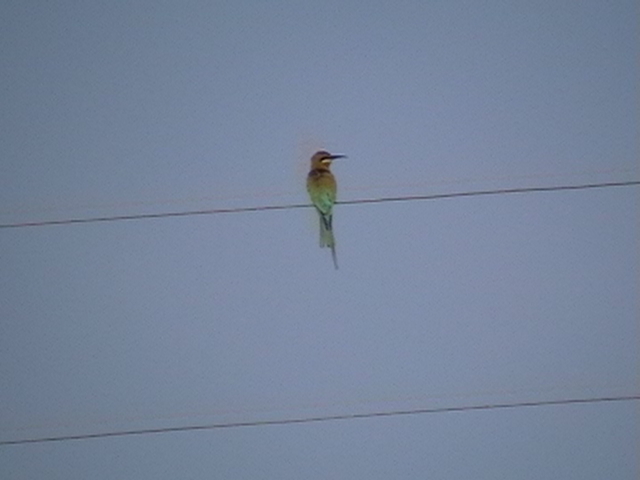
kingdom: Animalia
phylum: Chordata
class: Aves
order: Coraciiformes
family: Meropidae
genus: Merops
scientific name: Merops philippinus
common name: Blue-tailed bee-eater
